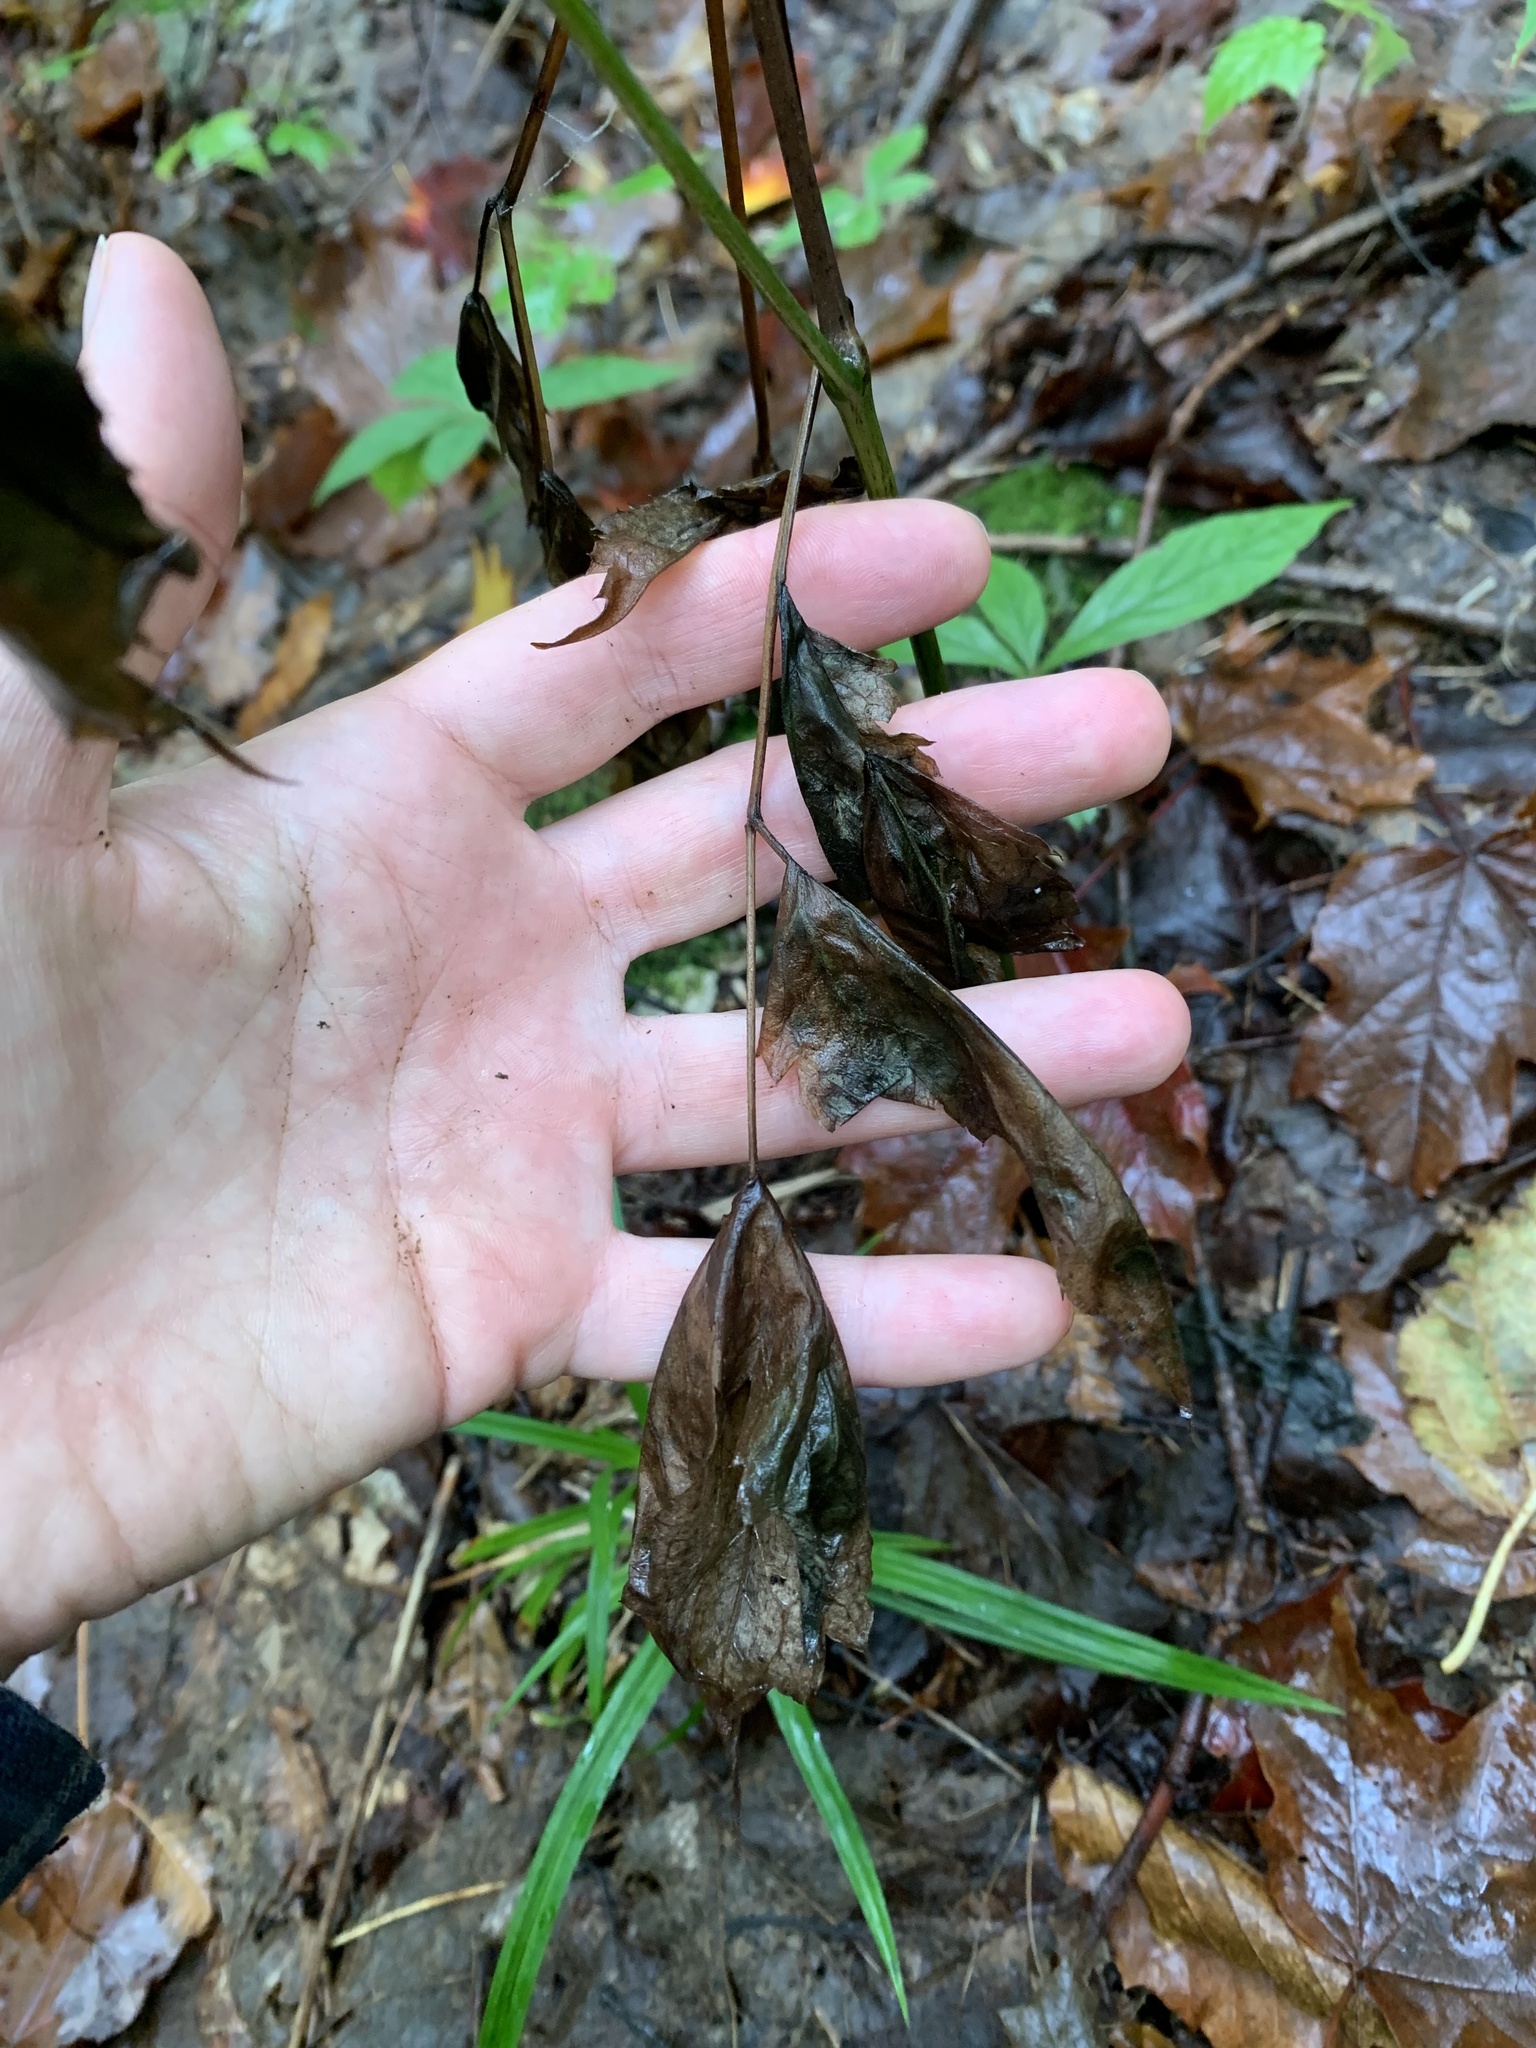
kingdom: Plantae
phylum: Tracheophyta
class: Magnoliopsida
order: Ranunculales
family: Ranunculaceae
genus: Actaea
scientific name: Actaea pachypoda
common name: Doll's-eyes
